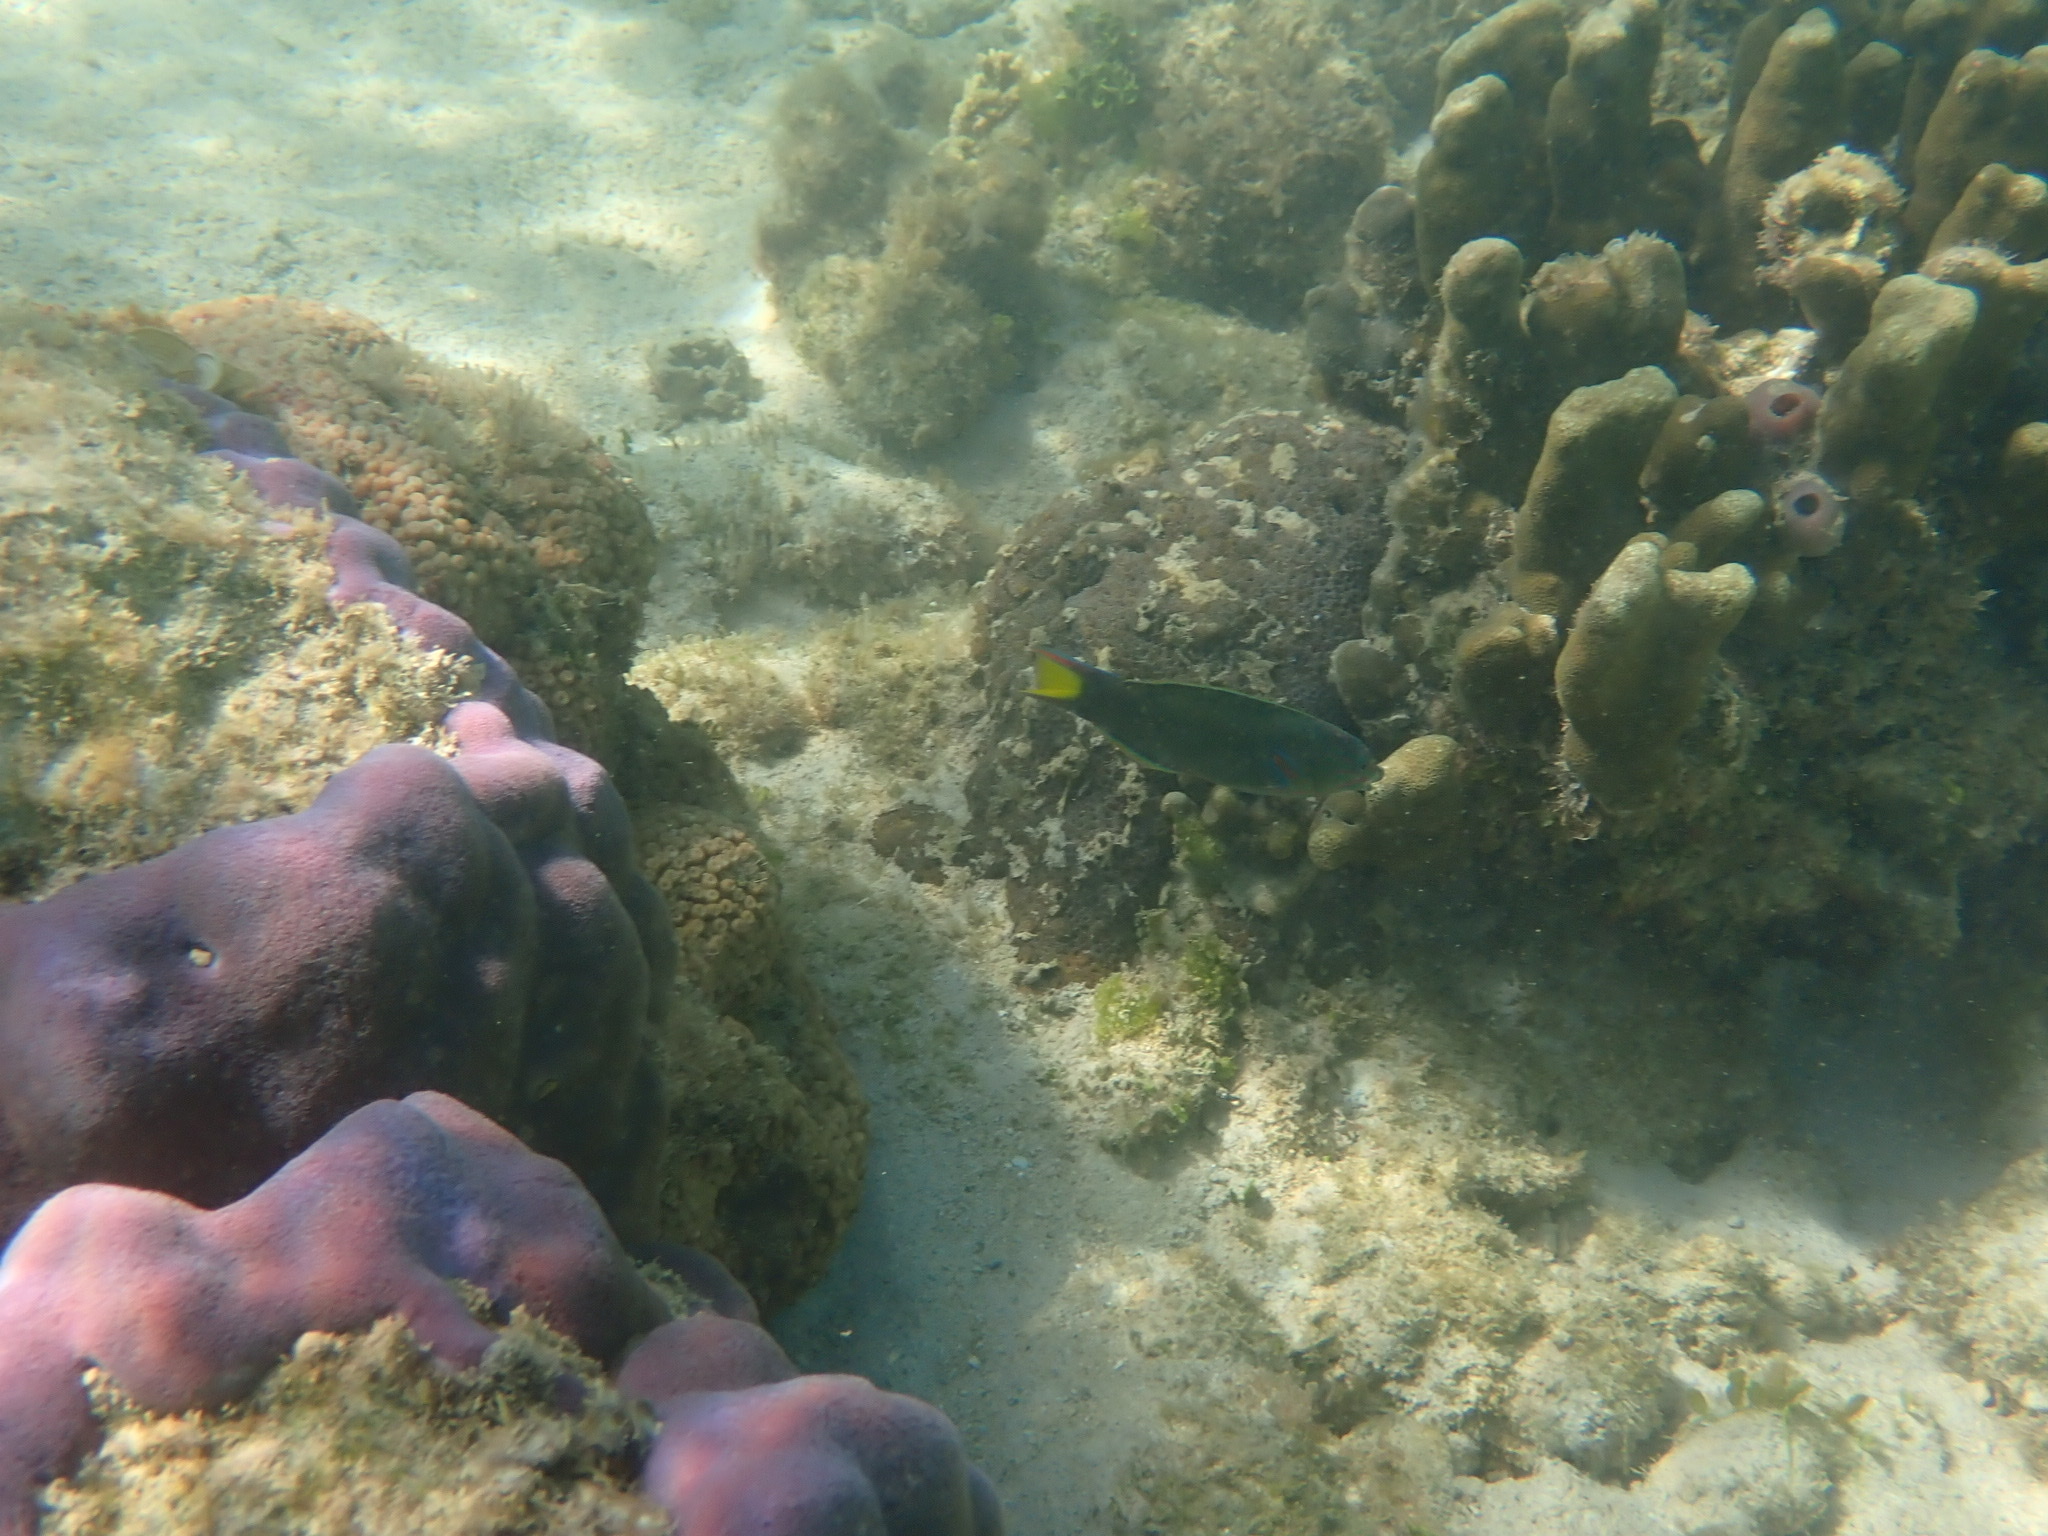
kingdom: Animalia
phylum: Chordata
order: Perciformes
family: Labridae
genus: Thalassoma
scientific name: Thalassoma lunare
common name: Blue wrasse
